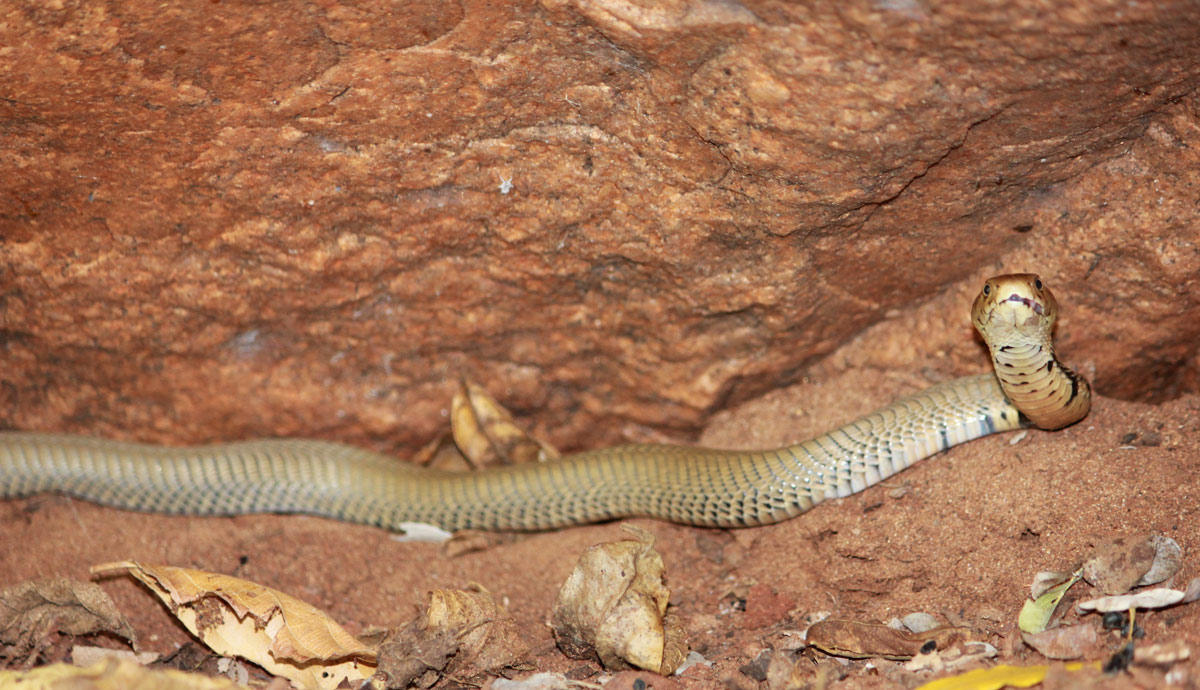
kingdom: Animalia
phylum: Chordata
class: Squamata
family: Elapidae
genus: Naja
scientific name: Naja mossambica
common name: Mozambique spitting cobra
